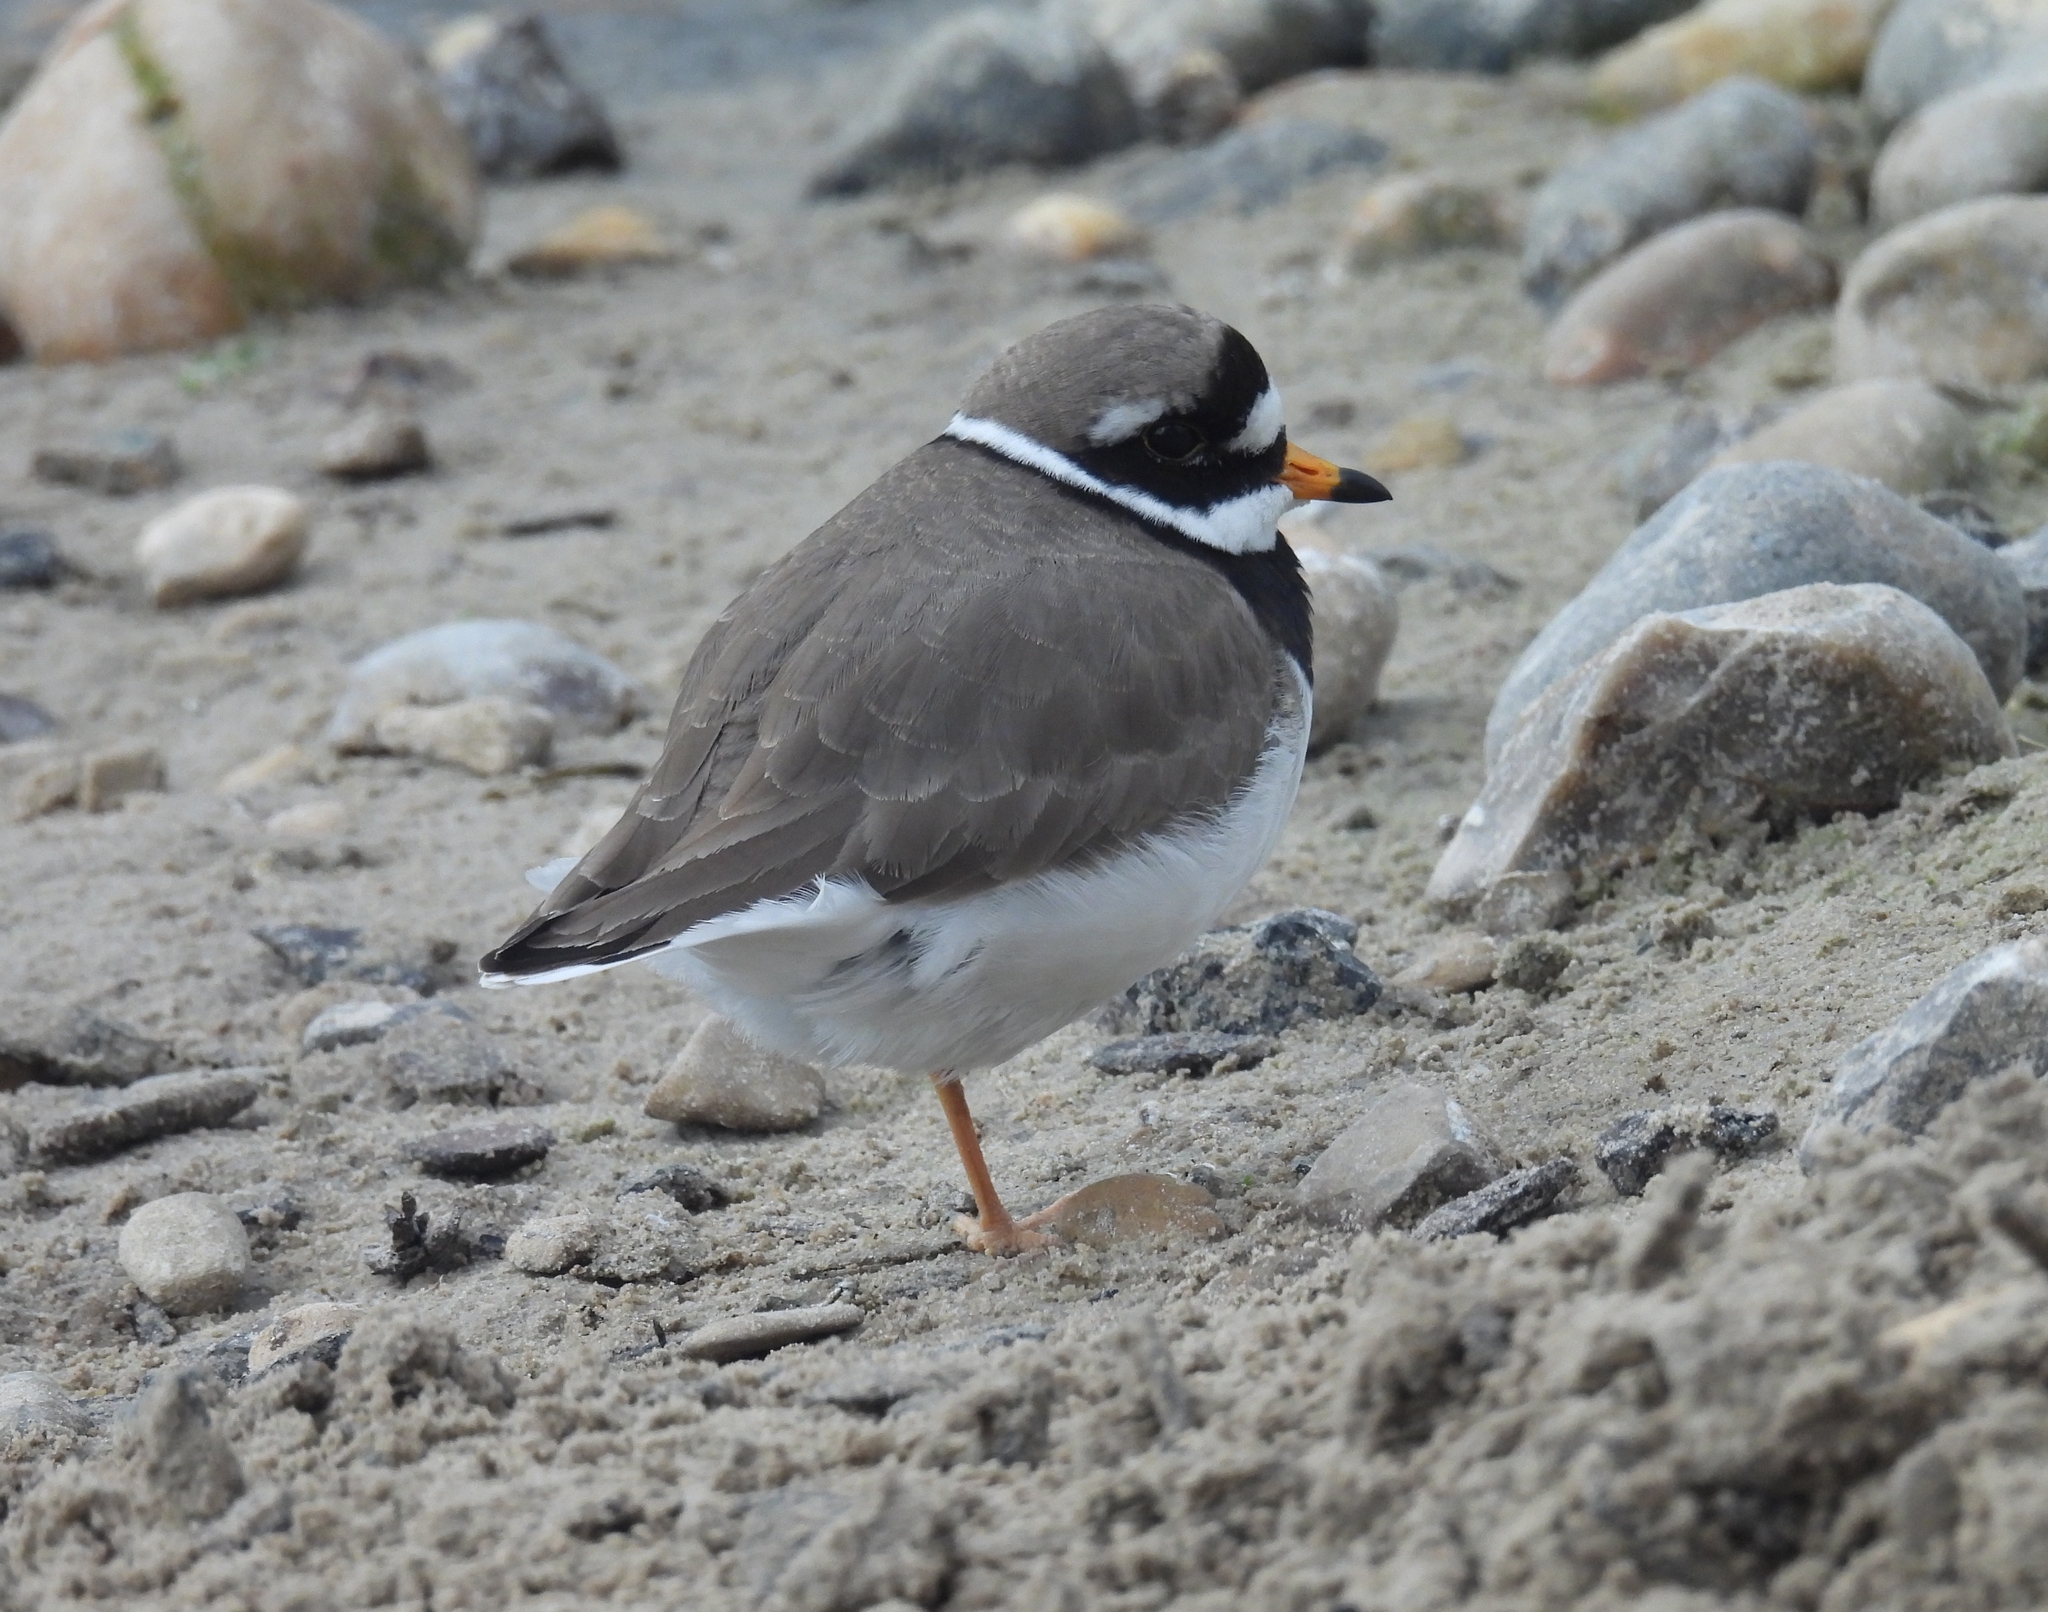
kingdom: Animalia
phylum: Chordata
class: Aves
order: Charadriiformes
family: Charadriidae
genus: Charadrius
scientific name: Charadrius hiaticula
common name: Common ringed plover
